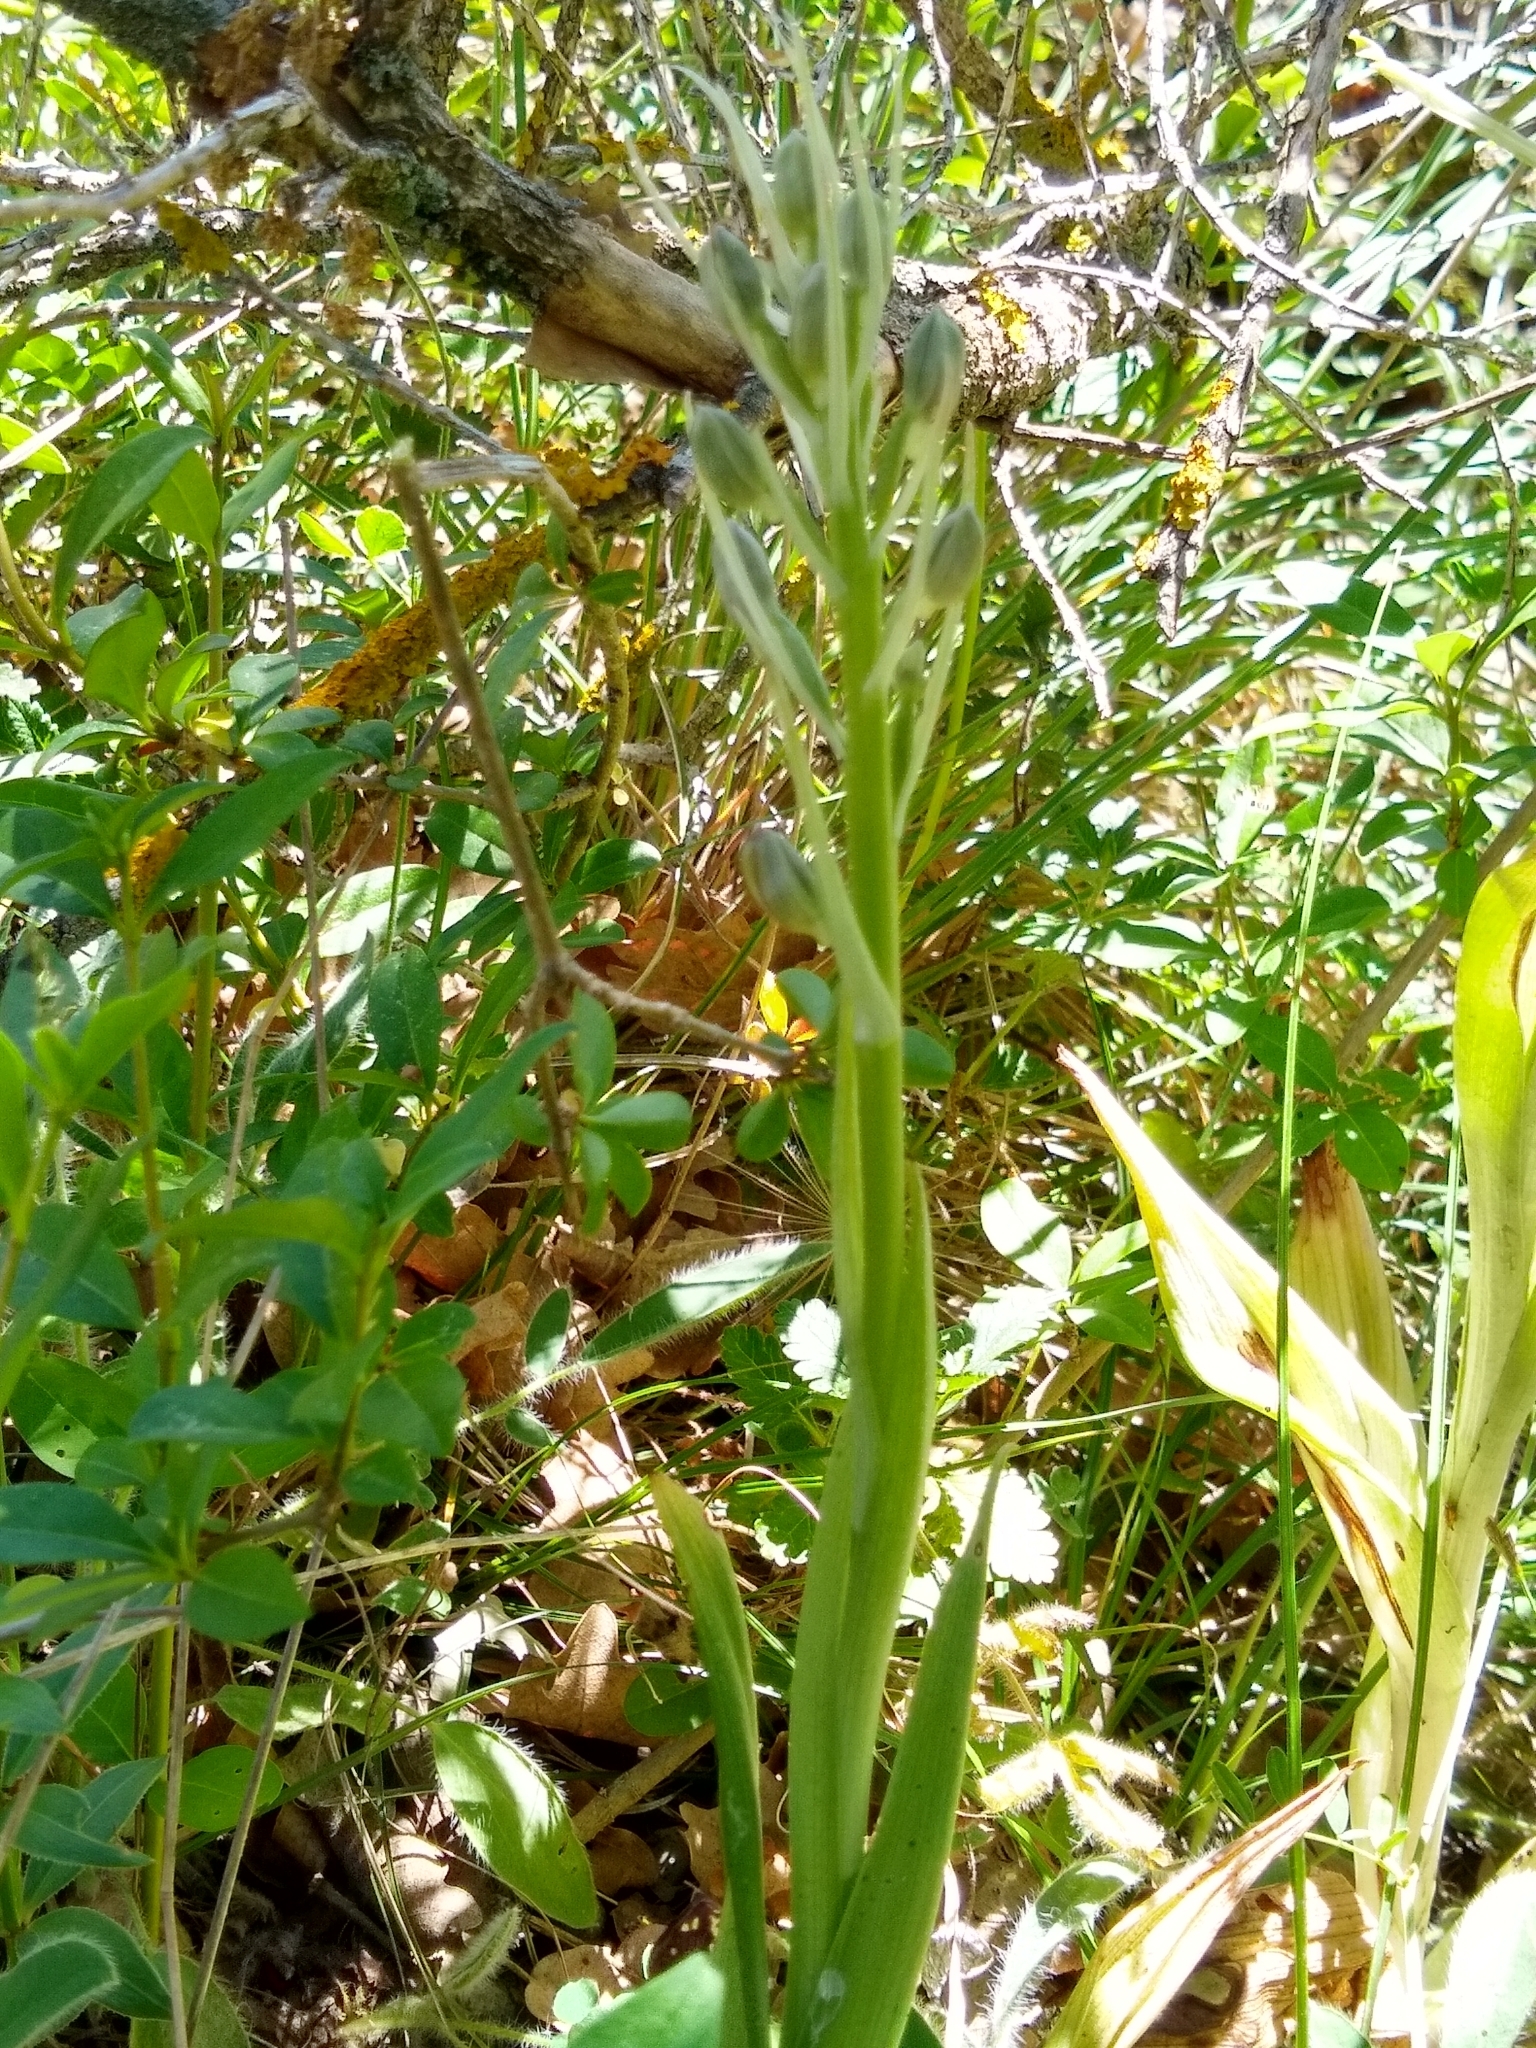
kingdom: Plantae
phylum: Tracheophyta
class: Liliopsida
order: Asparagales
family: Orchidaceae
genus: Himantoglossum
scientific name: Himantoglossum hircinum
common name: Lizard orchid
